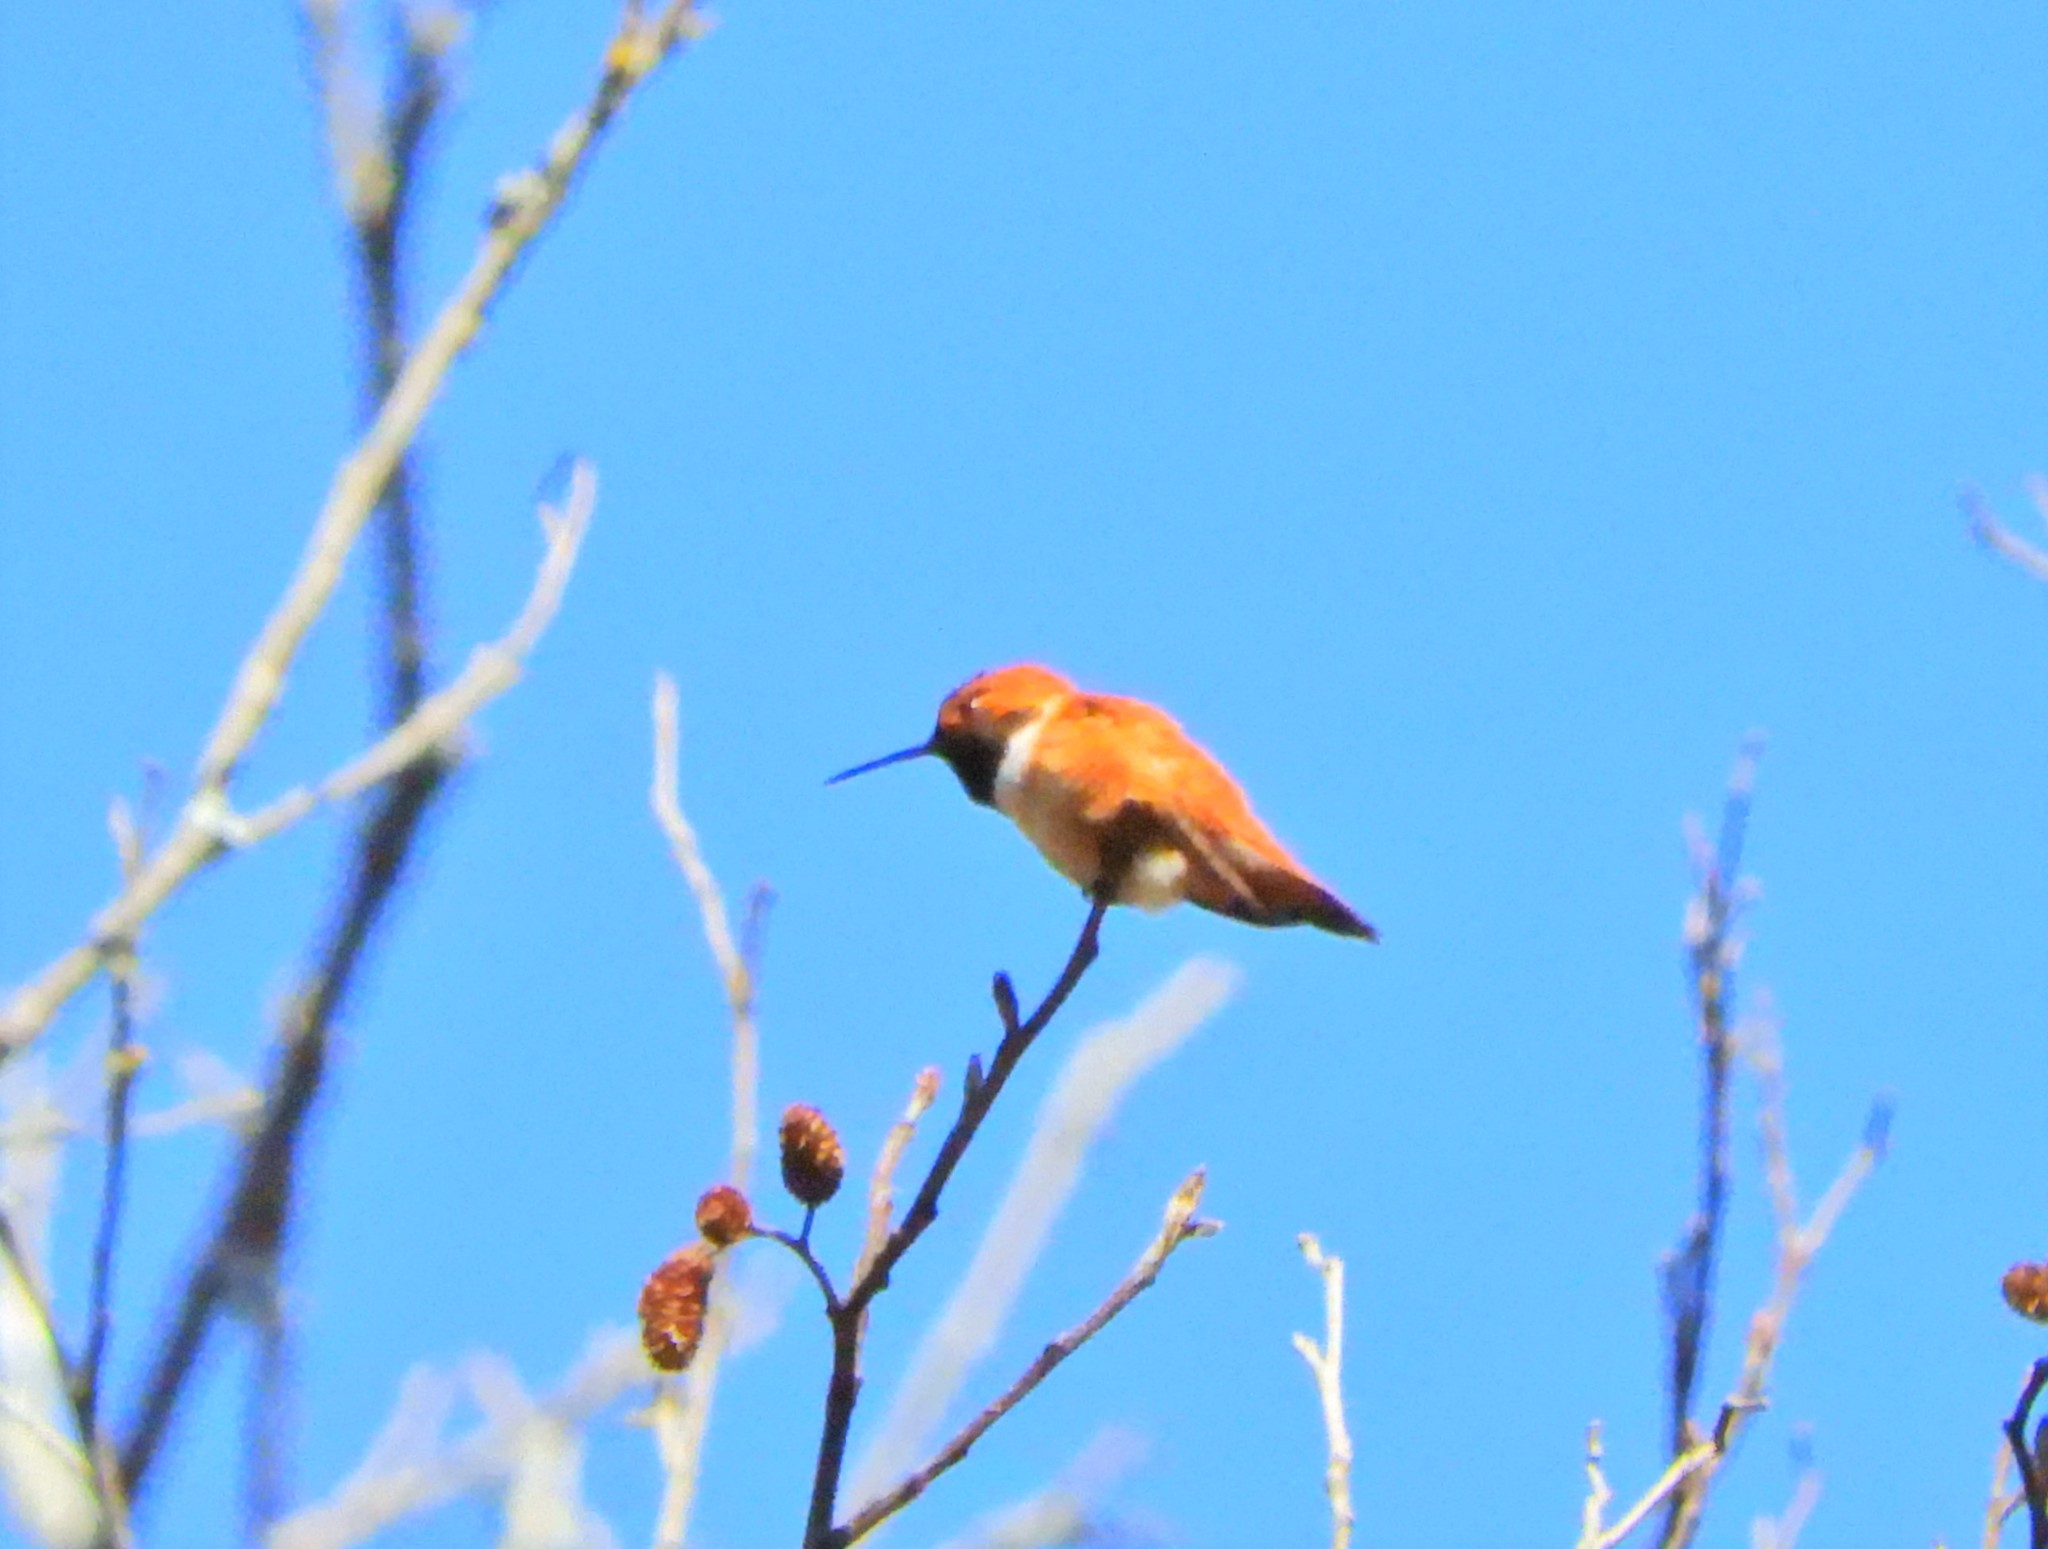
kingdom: Animalia
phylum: Chordata
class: Aves
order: Apodiformes
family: Trochilidae
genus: Selasphorus
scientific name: Selasphorus rufus
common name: Rufous hummingbird
